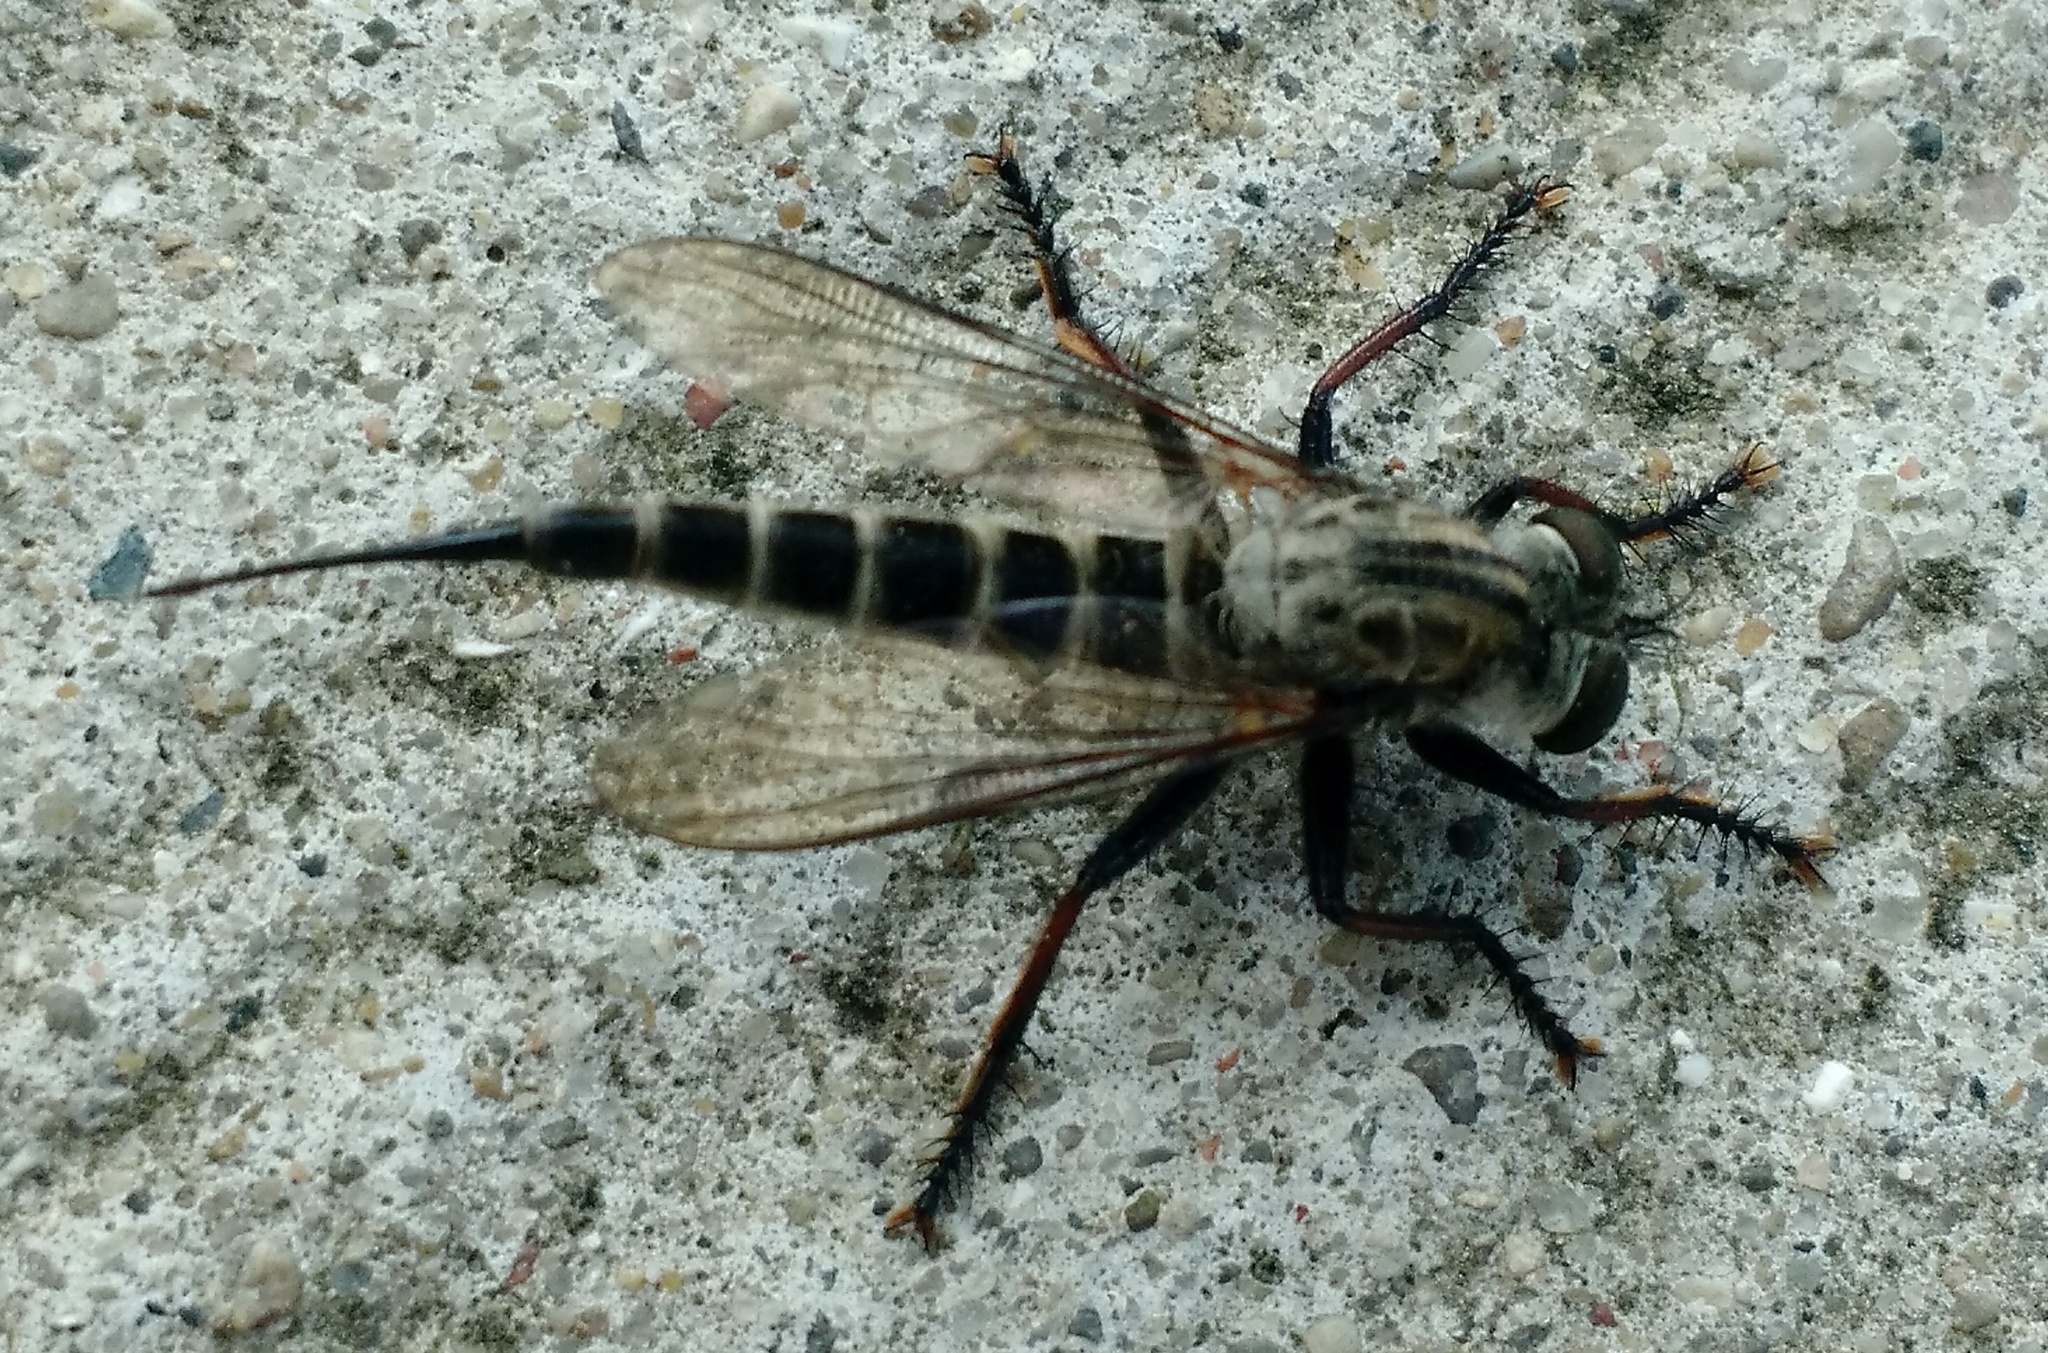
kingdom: Animalia
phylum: Arthropoda
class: Insecta
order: Diptera
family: Asilidae
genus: Efferia
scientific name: Efferia aestuans
